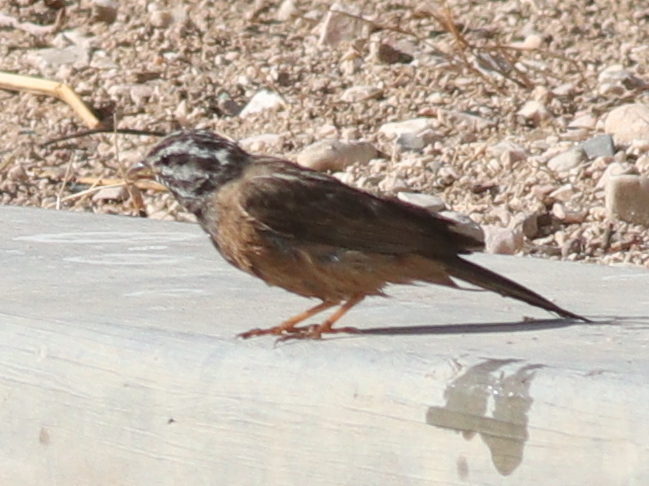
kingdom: Animalia
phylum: Chordata
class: Aves
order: Passeriformes
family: Emberizidae
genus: Emberiza
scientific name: Emberiza tahapisi
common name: Cinnamon-breasted bunting
